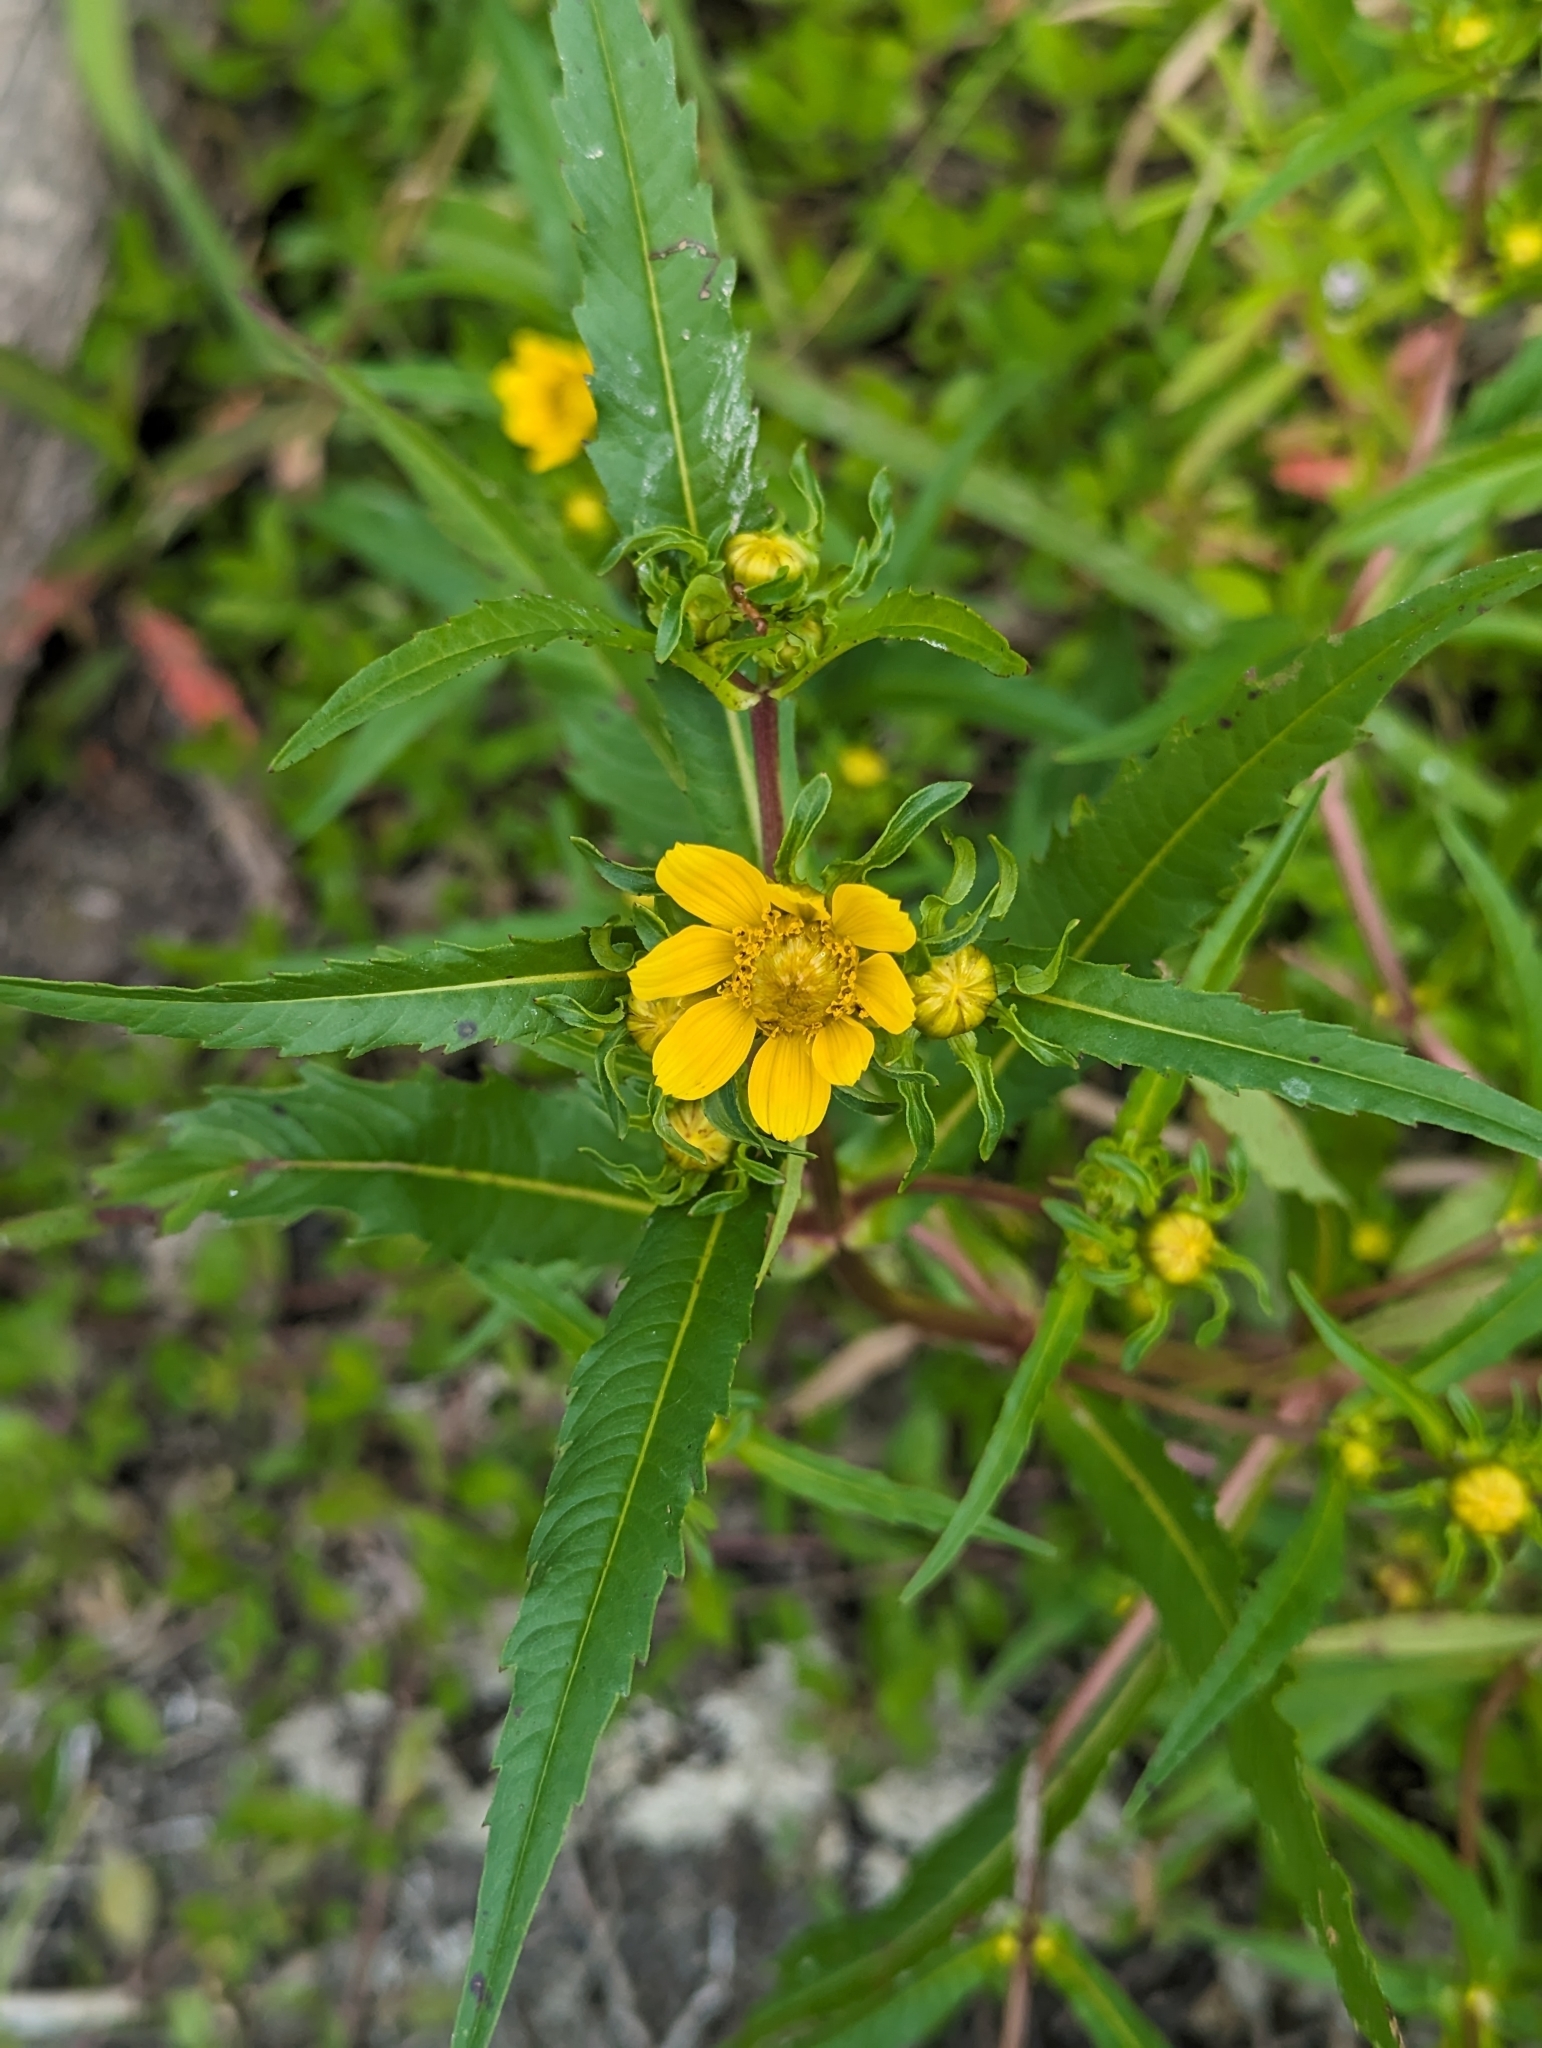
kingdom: Plantae
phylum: Tracheophyta
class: Magnoliopsida
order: Asterales
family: Asteraceae
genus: Bidens
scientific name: Bidens cernua
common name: Nodding bur-marigold
